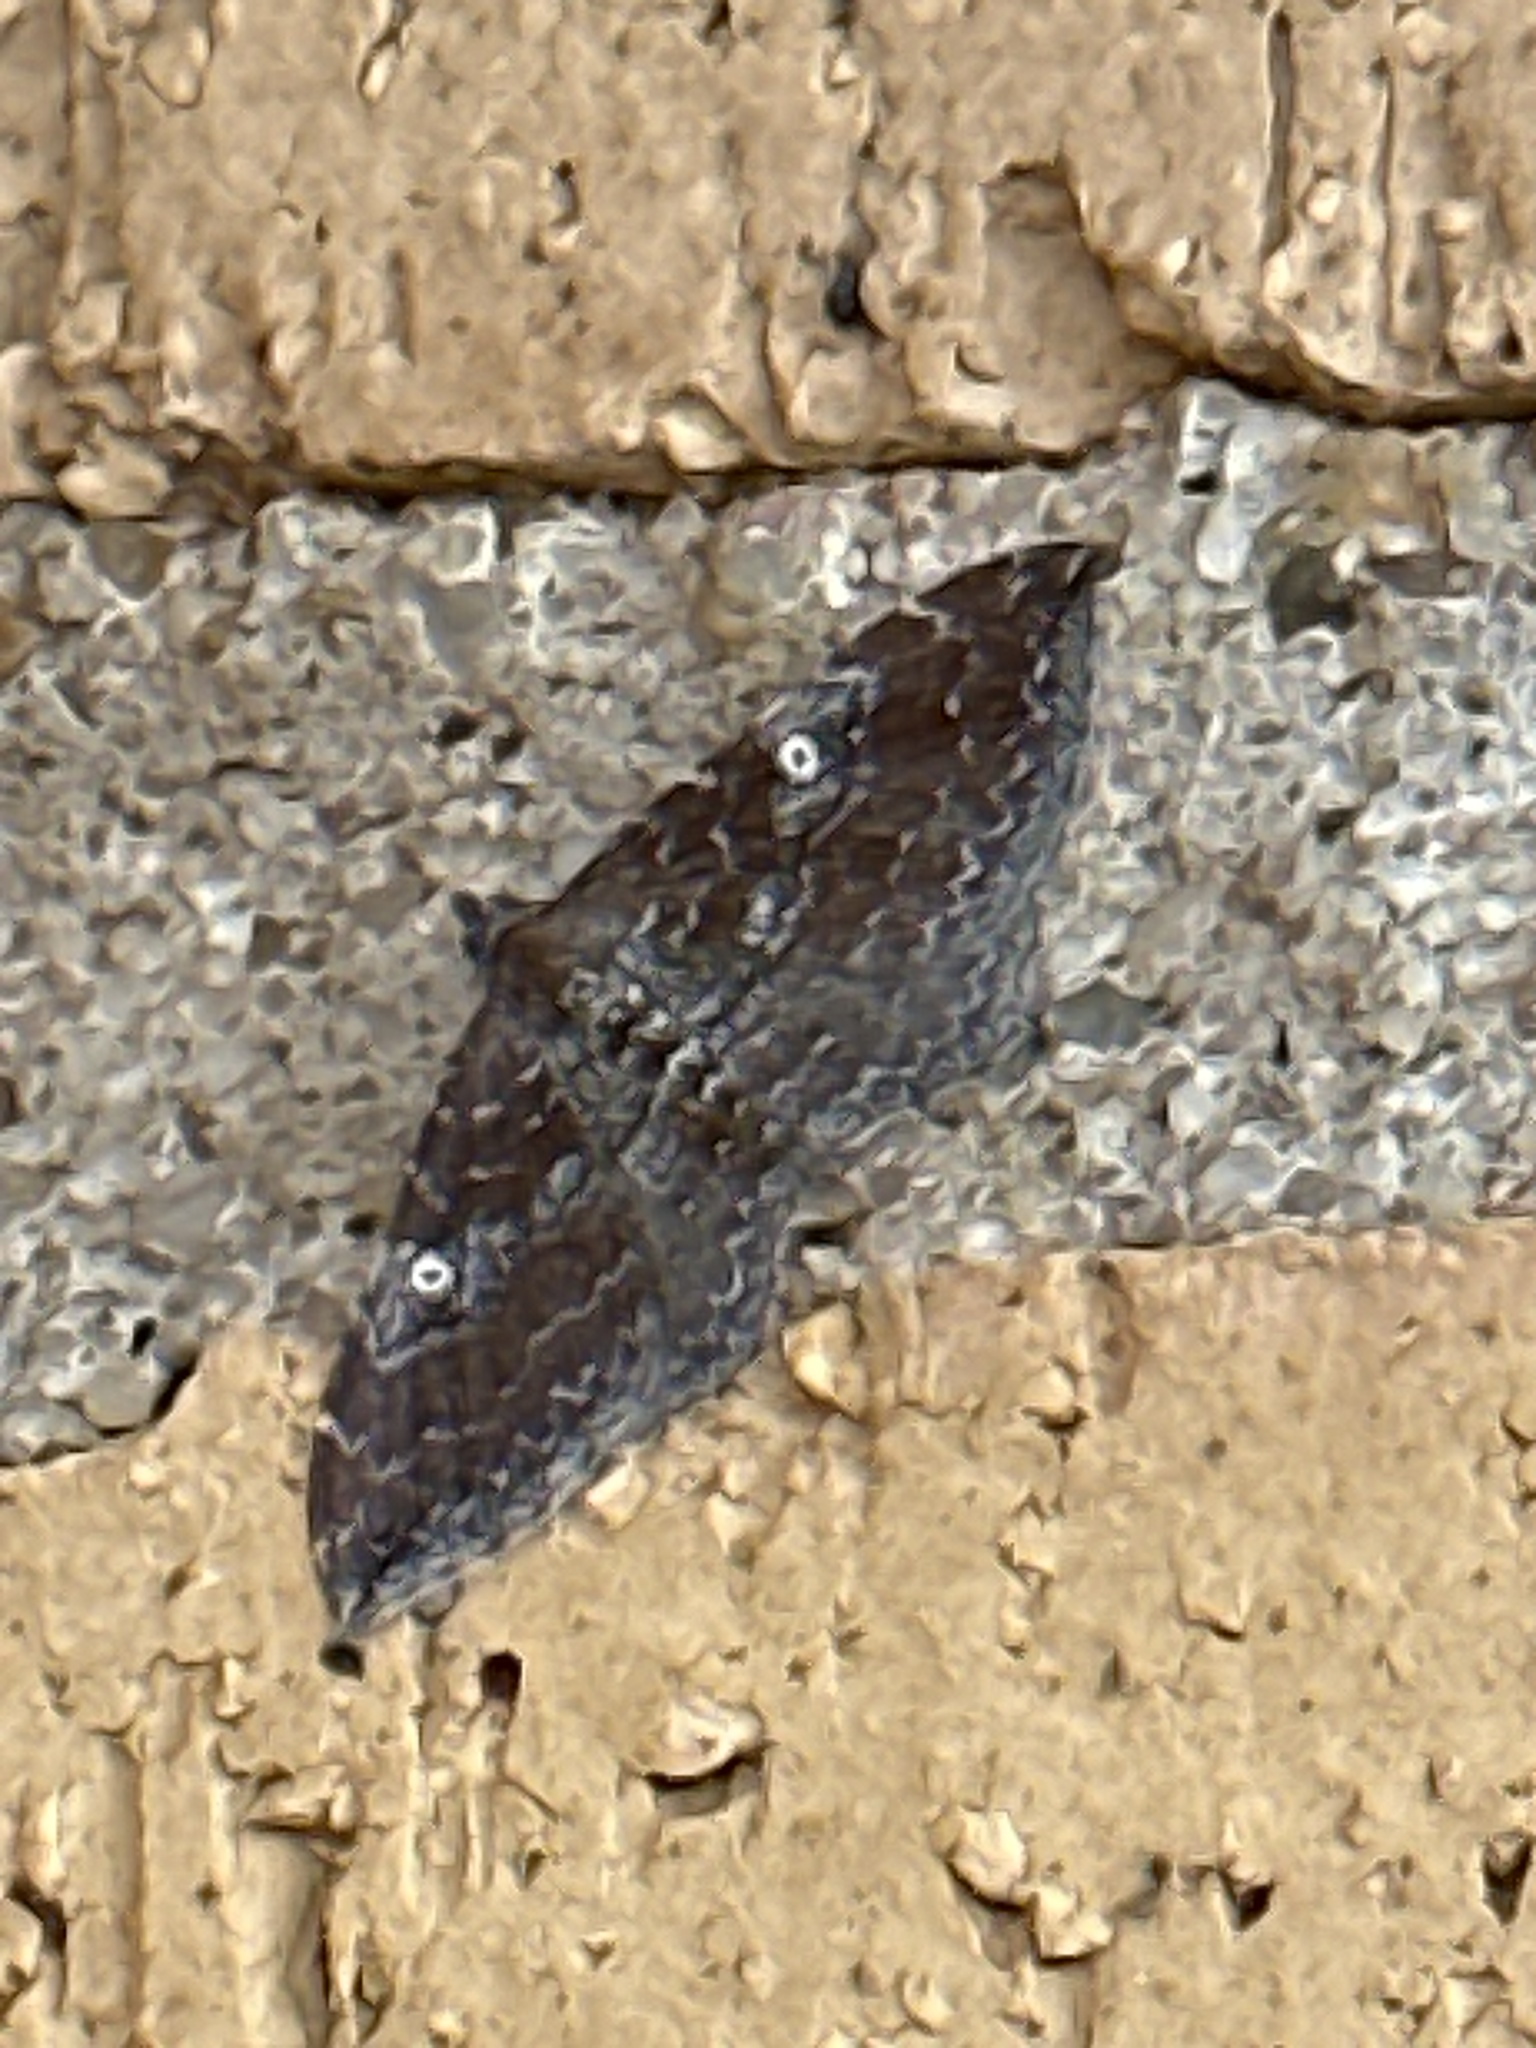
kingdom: Animalia
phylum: Arthropoda
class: Insecta
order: Lepidoptera
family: Geometridae
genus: Orthonama
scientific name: Orthonama obstipata
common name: The gem
